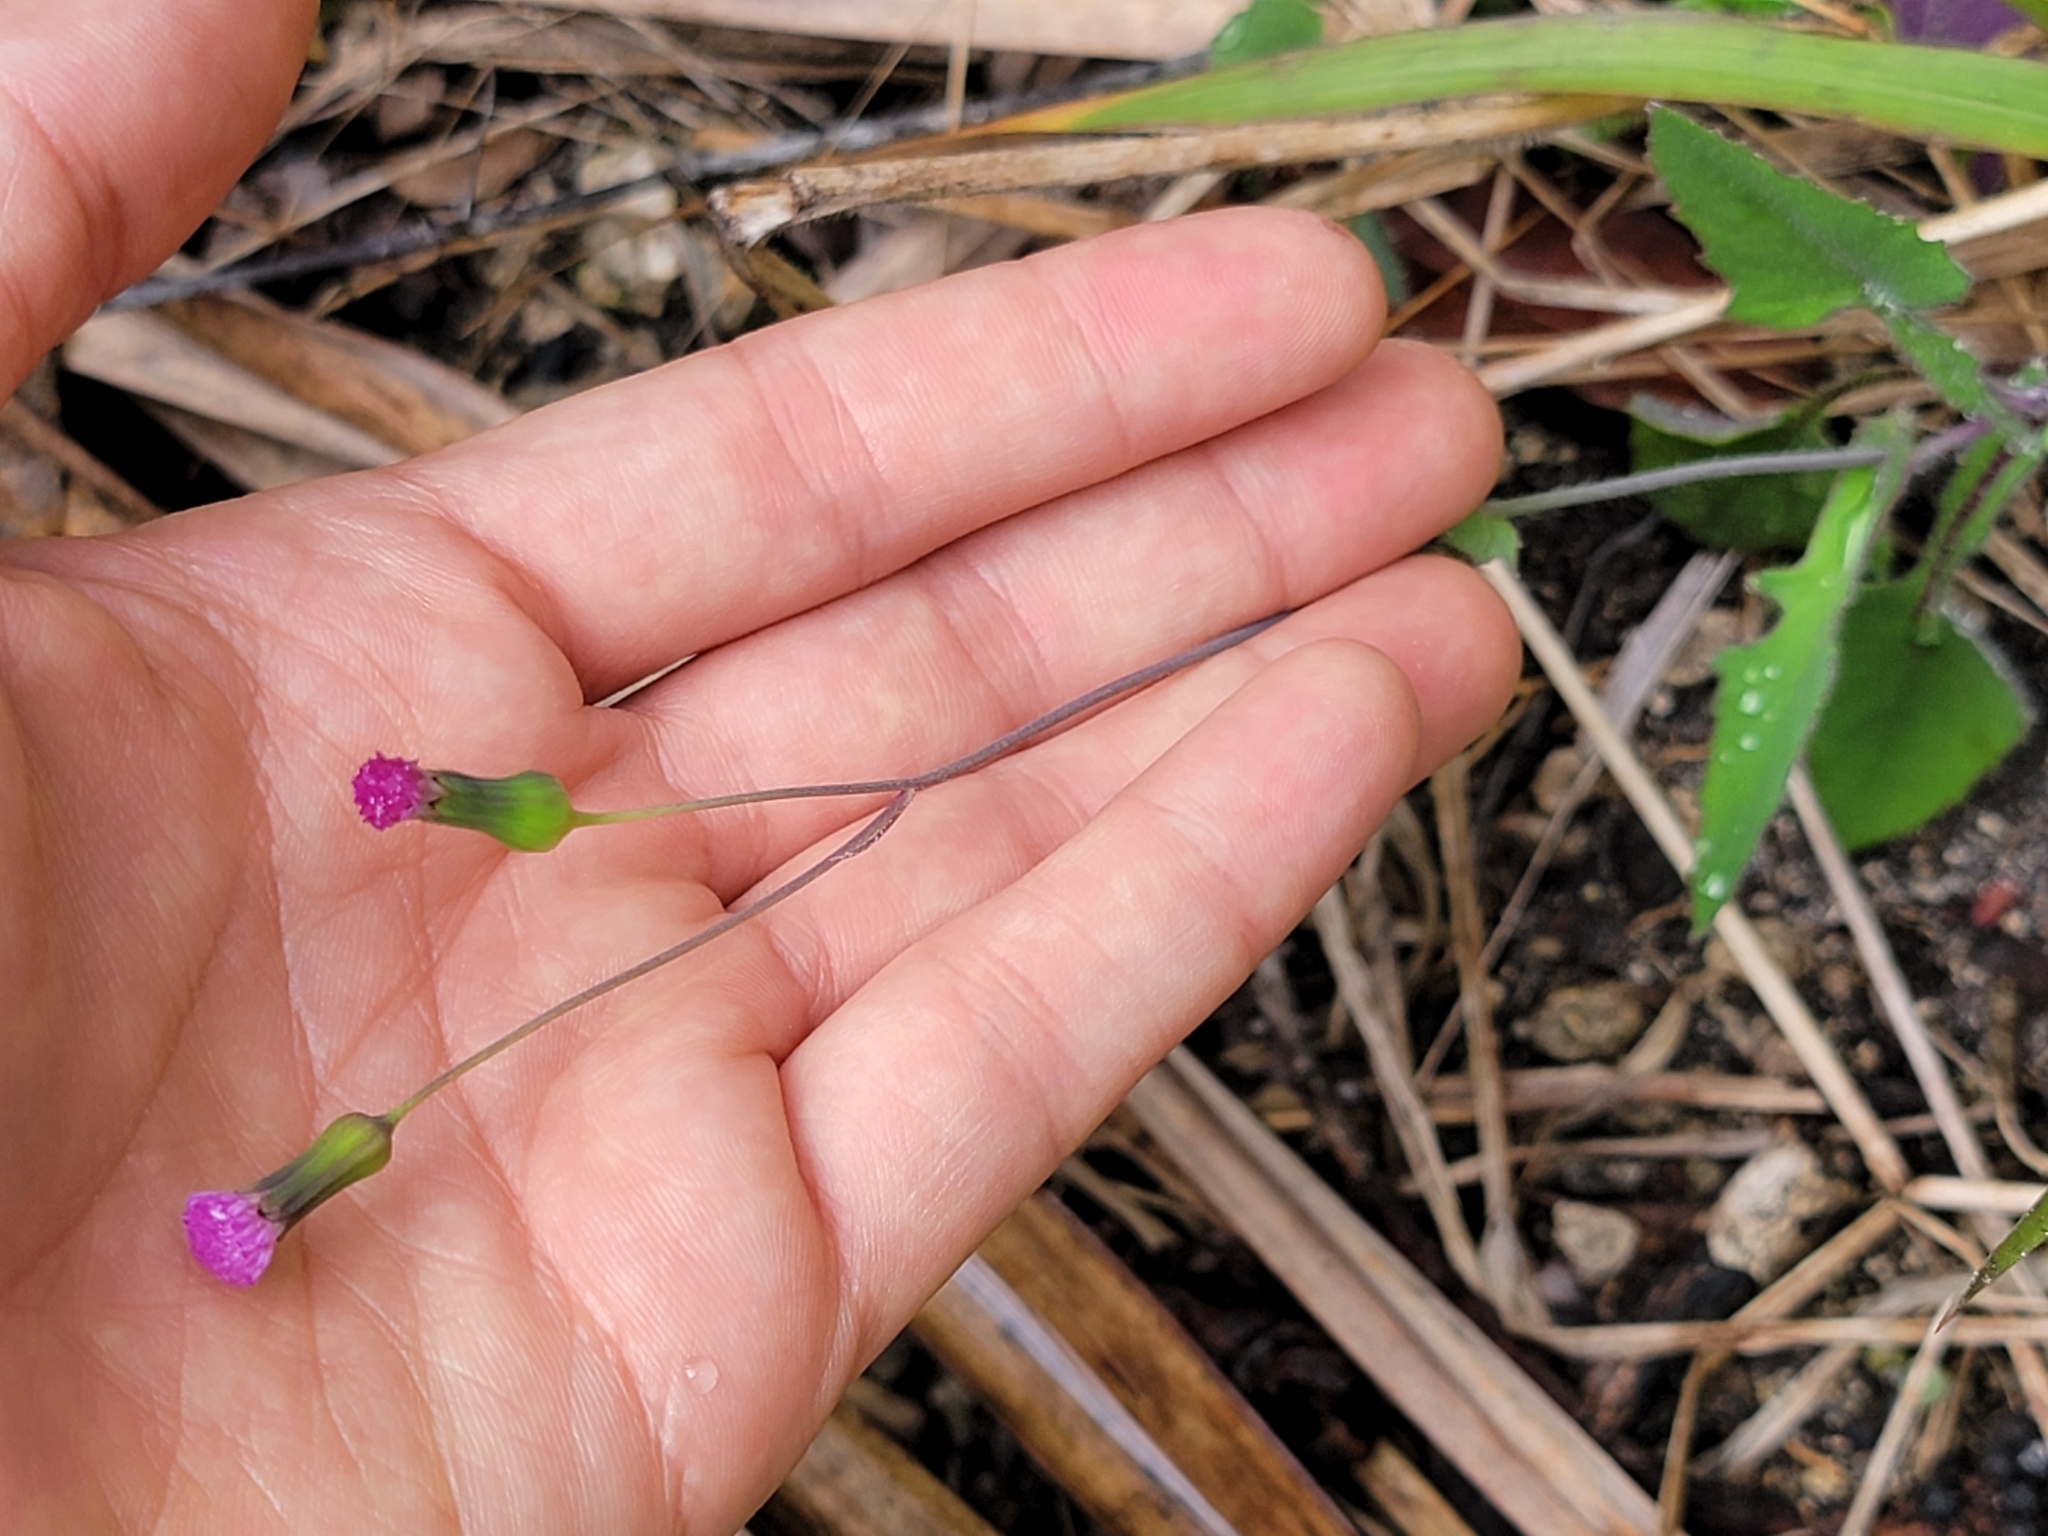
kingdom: Plantae
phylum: Tracheophyta
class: Magnoliopsida
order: Asterales
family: Asteraceae
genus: Emilia
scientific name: Emilia sonchifolia
